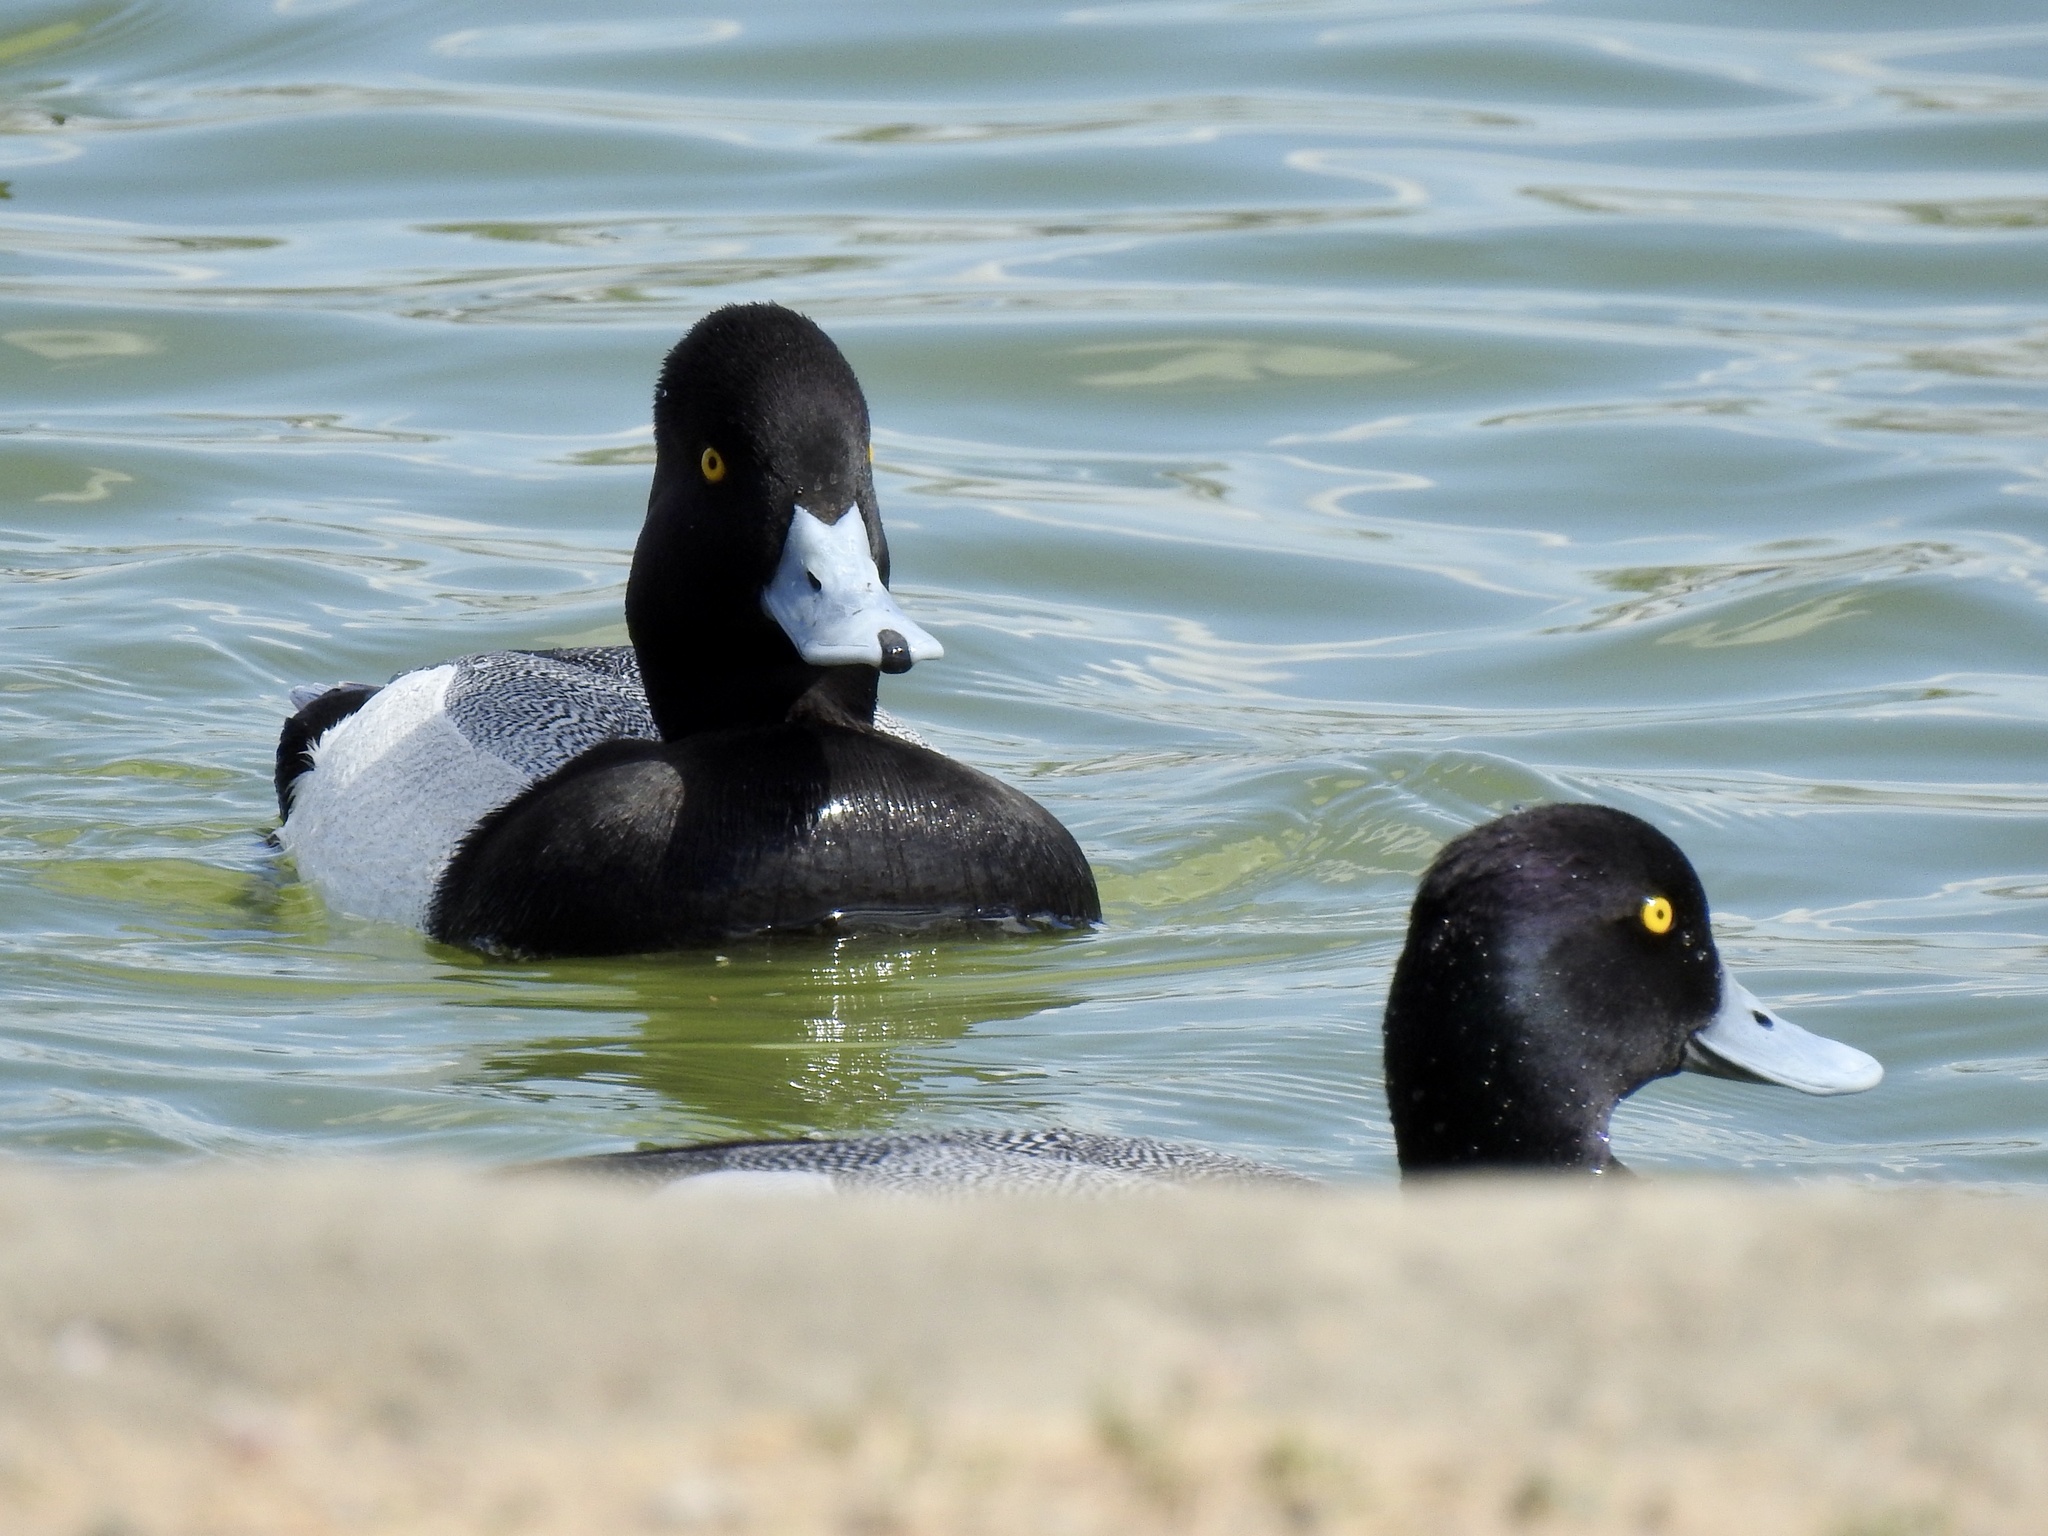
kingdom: Animalia
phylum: Chordata
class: Aves
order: Anseriformes
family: Anatidae
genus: Aythya
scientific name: Aythya affinis
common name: Lesser scaup
